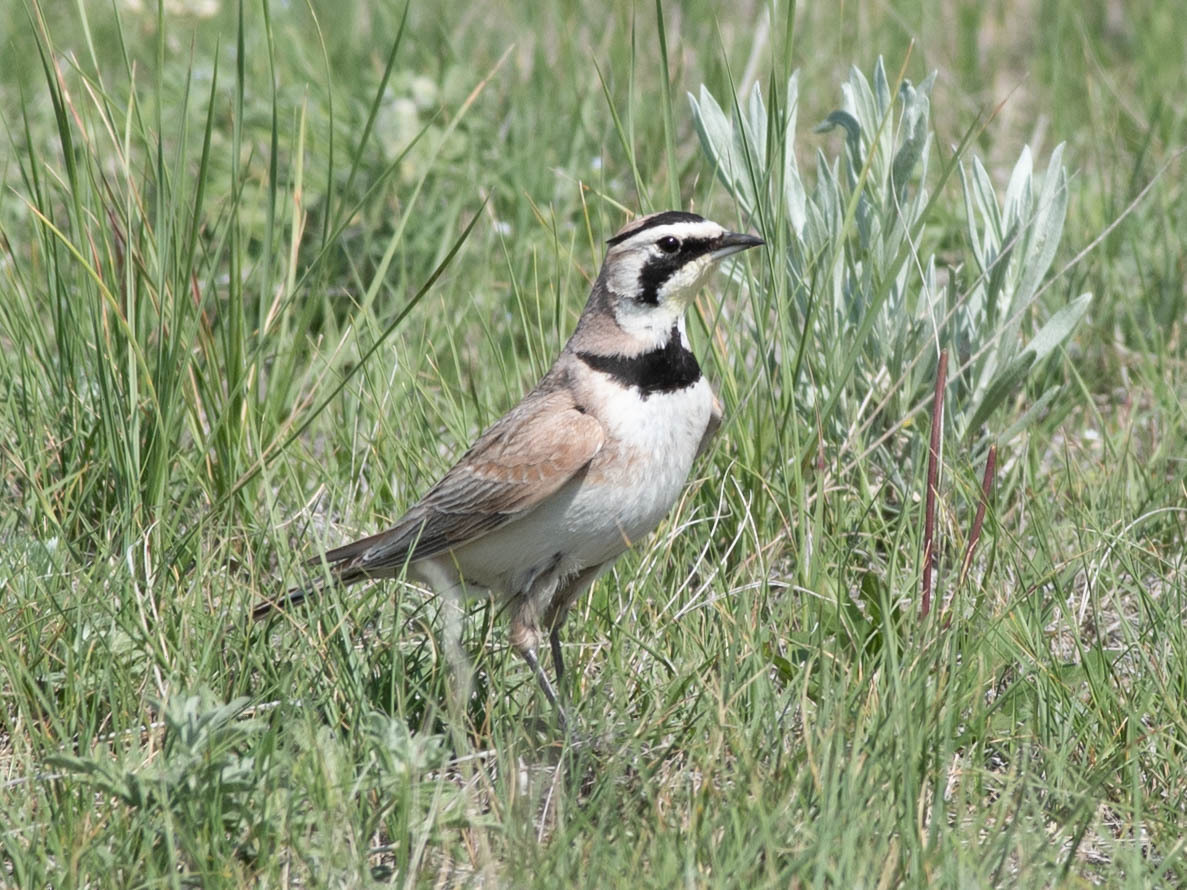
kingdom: Animalia
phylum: Chordata
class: Aves
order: Passeriformes
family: Alaudidae
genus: Eremophila
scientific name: Eremophila alpestris
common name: Horned lark
